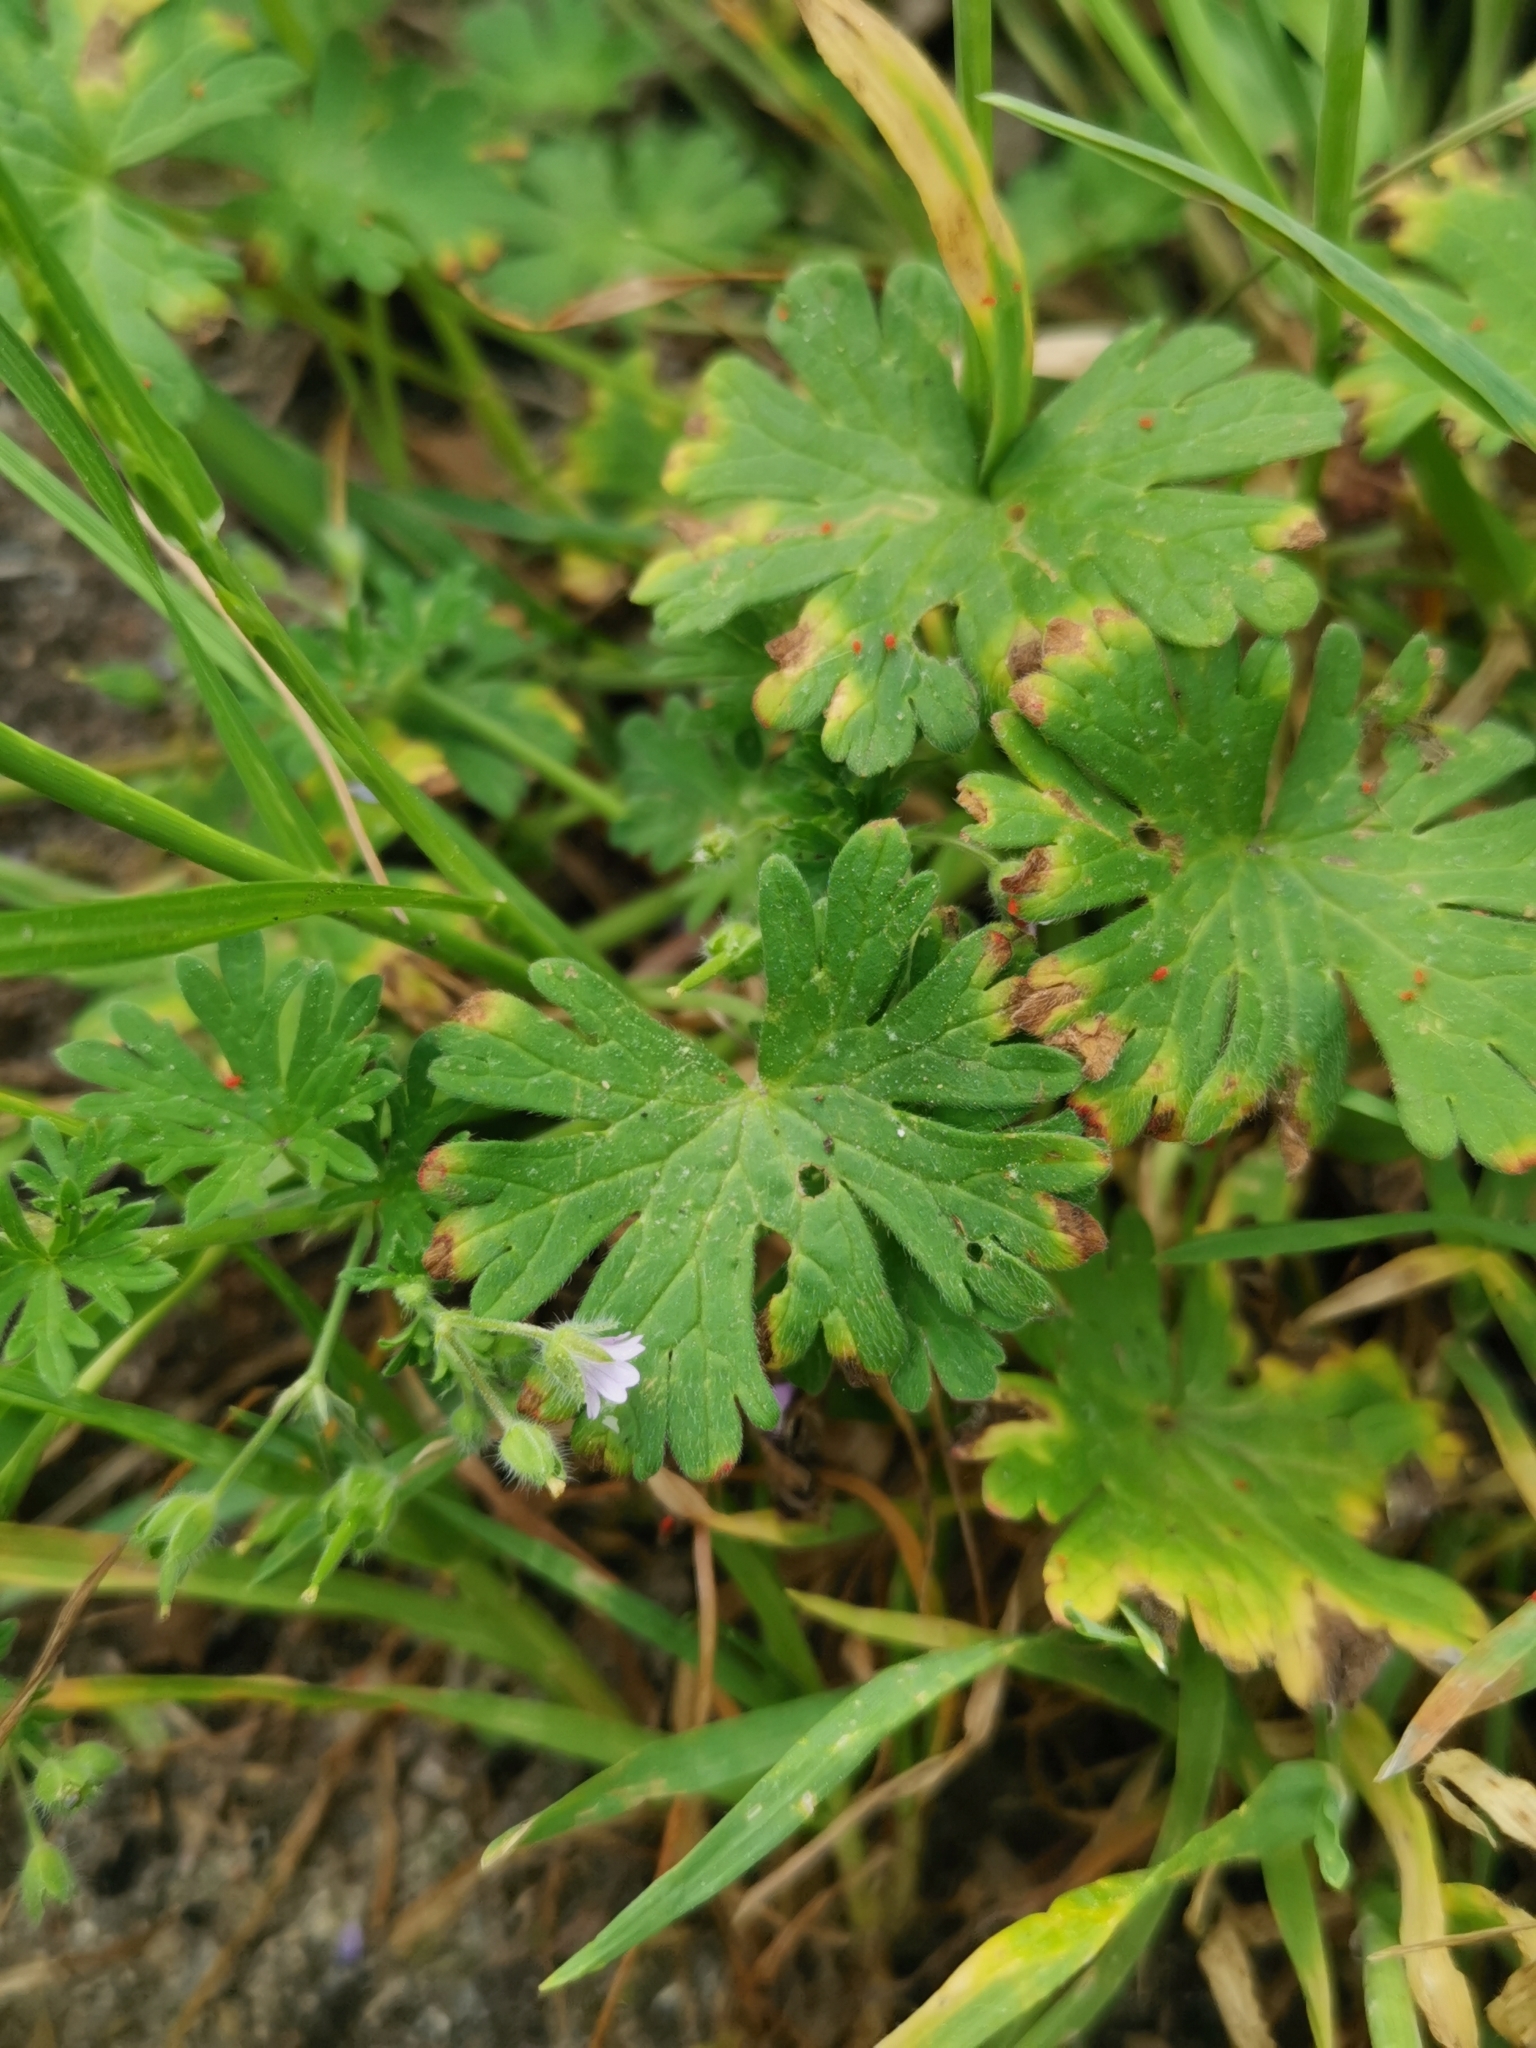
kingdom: Plantae
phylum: Tracheophyta
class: Magnoliopsida
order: Geraniales
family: Geraniaceae
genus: Geranium
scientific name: Geranium pusillum
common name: Small geranium
